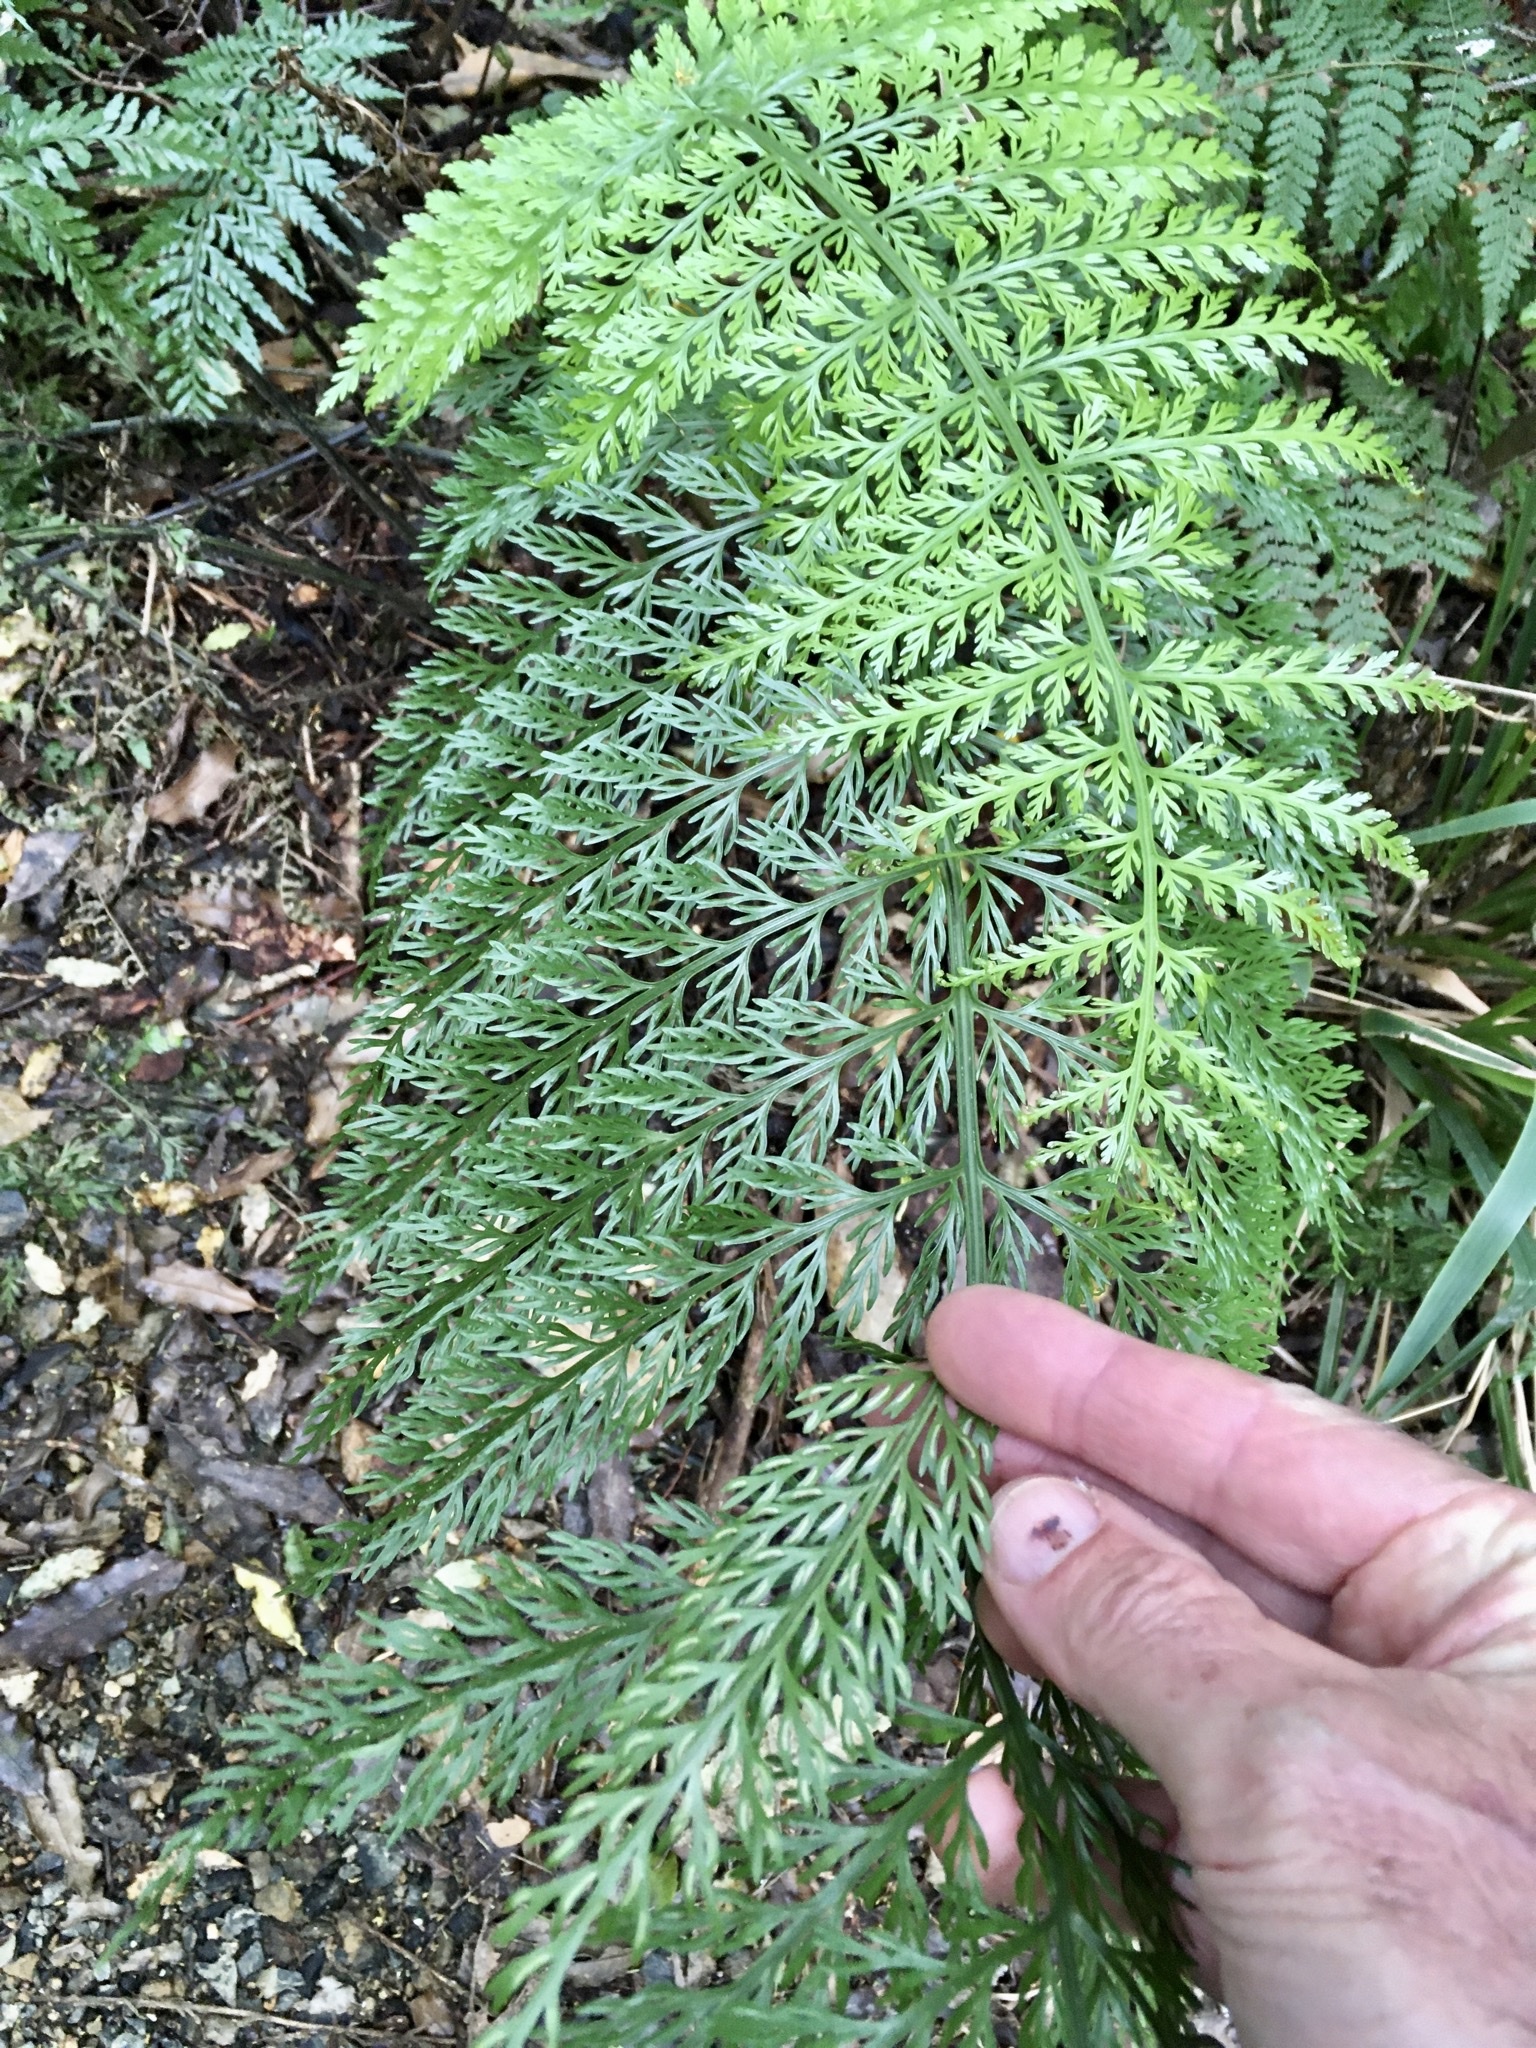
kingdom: Plantae
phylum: Tracheophyta
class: Polypodiopsida
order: Polypodiales
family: Aspleniaceae
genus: Asplenium
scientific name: Asplenium lucrosum
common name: False hen-and-chickens fern
